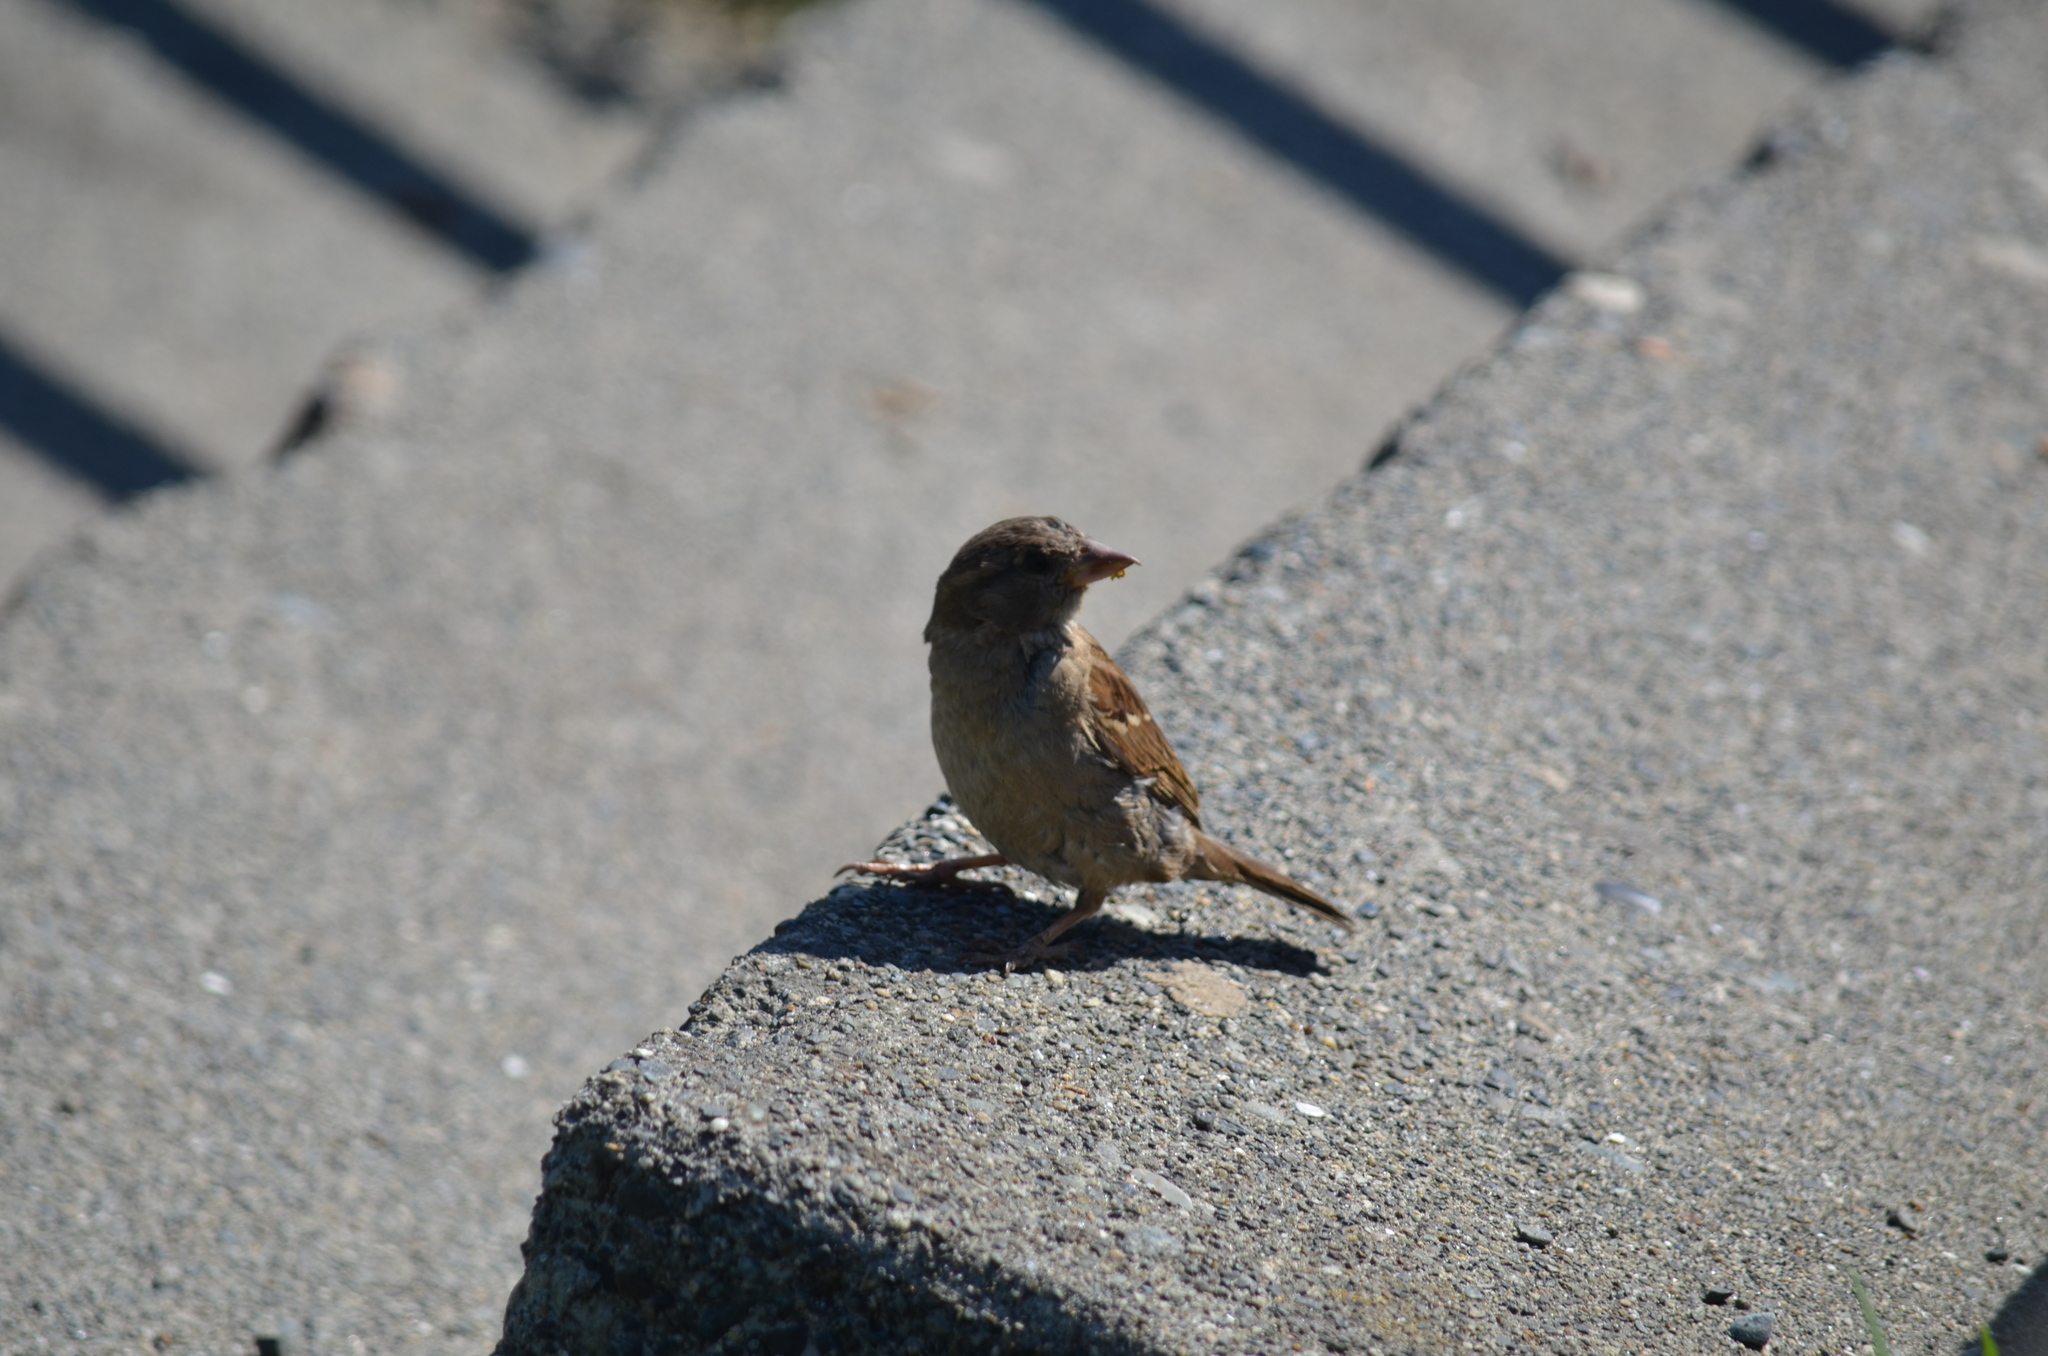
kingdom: Animalia
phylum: Chordata
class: Aves
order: Passeriformes
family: Passeridae
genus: Passer
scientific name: Passer domesticus
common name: House sparrow
